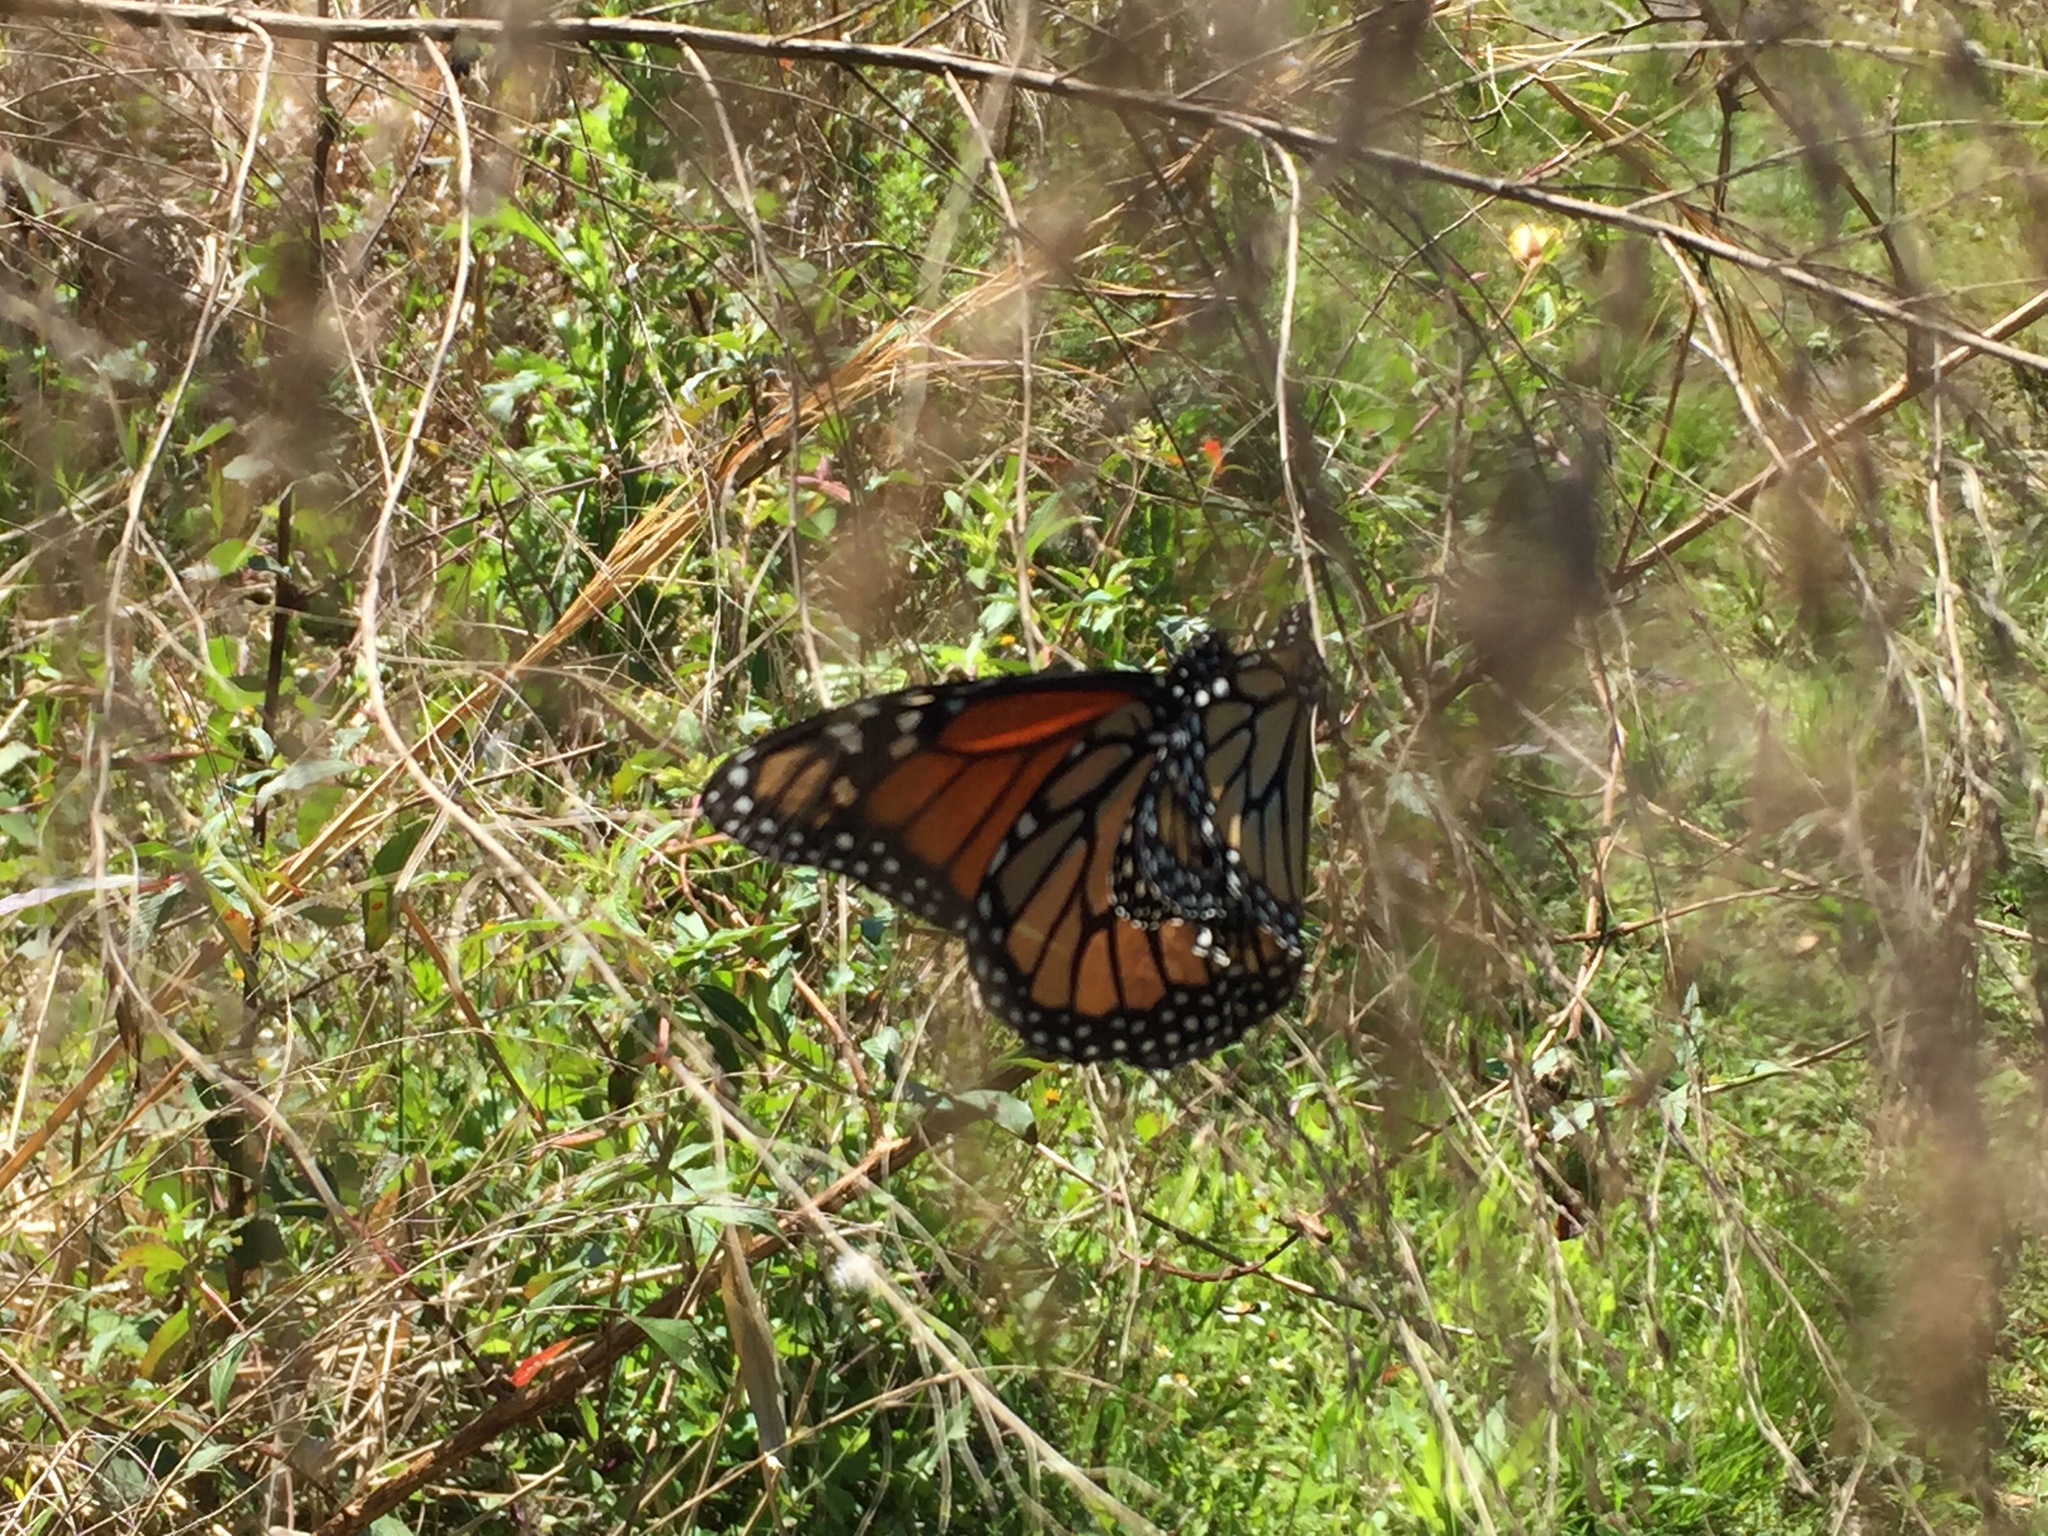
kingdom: Animalia
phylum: Arthropoda
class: Insecta
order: Lepidoptera
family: Nymphalidae
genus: Danaus
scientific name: Danaus plexippus
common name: Monarch
